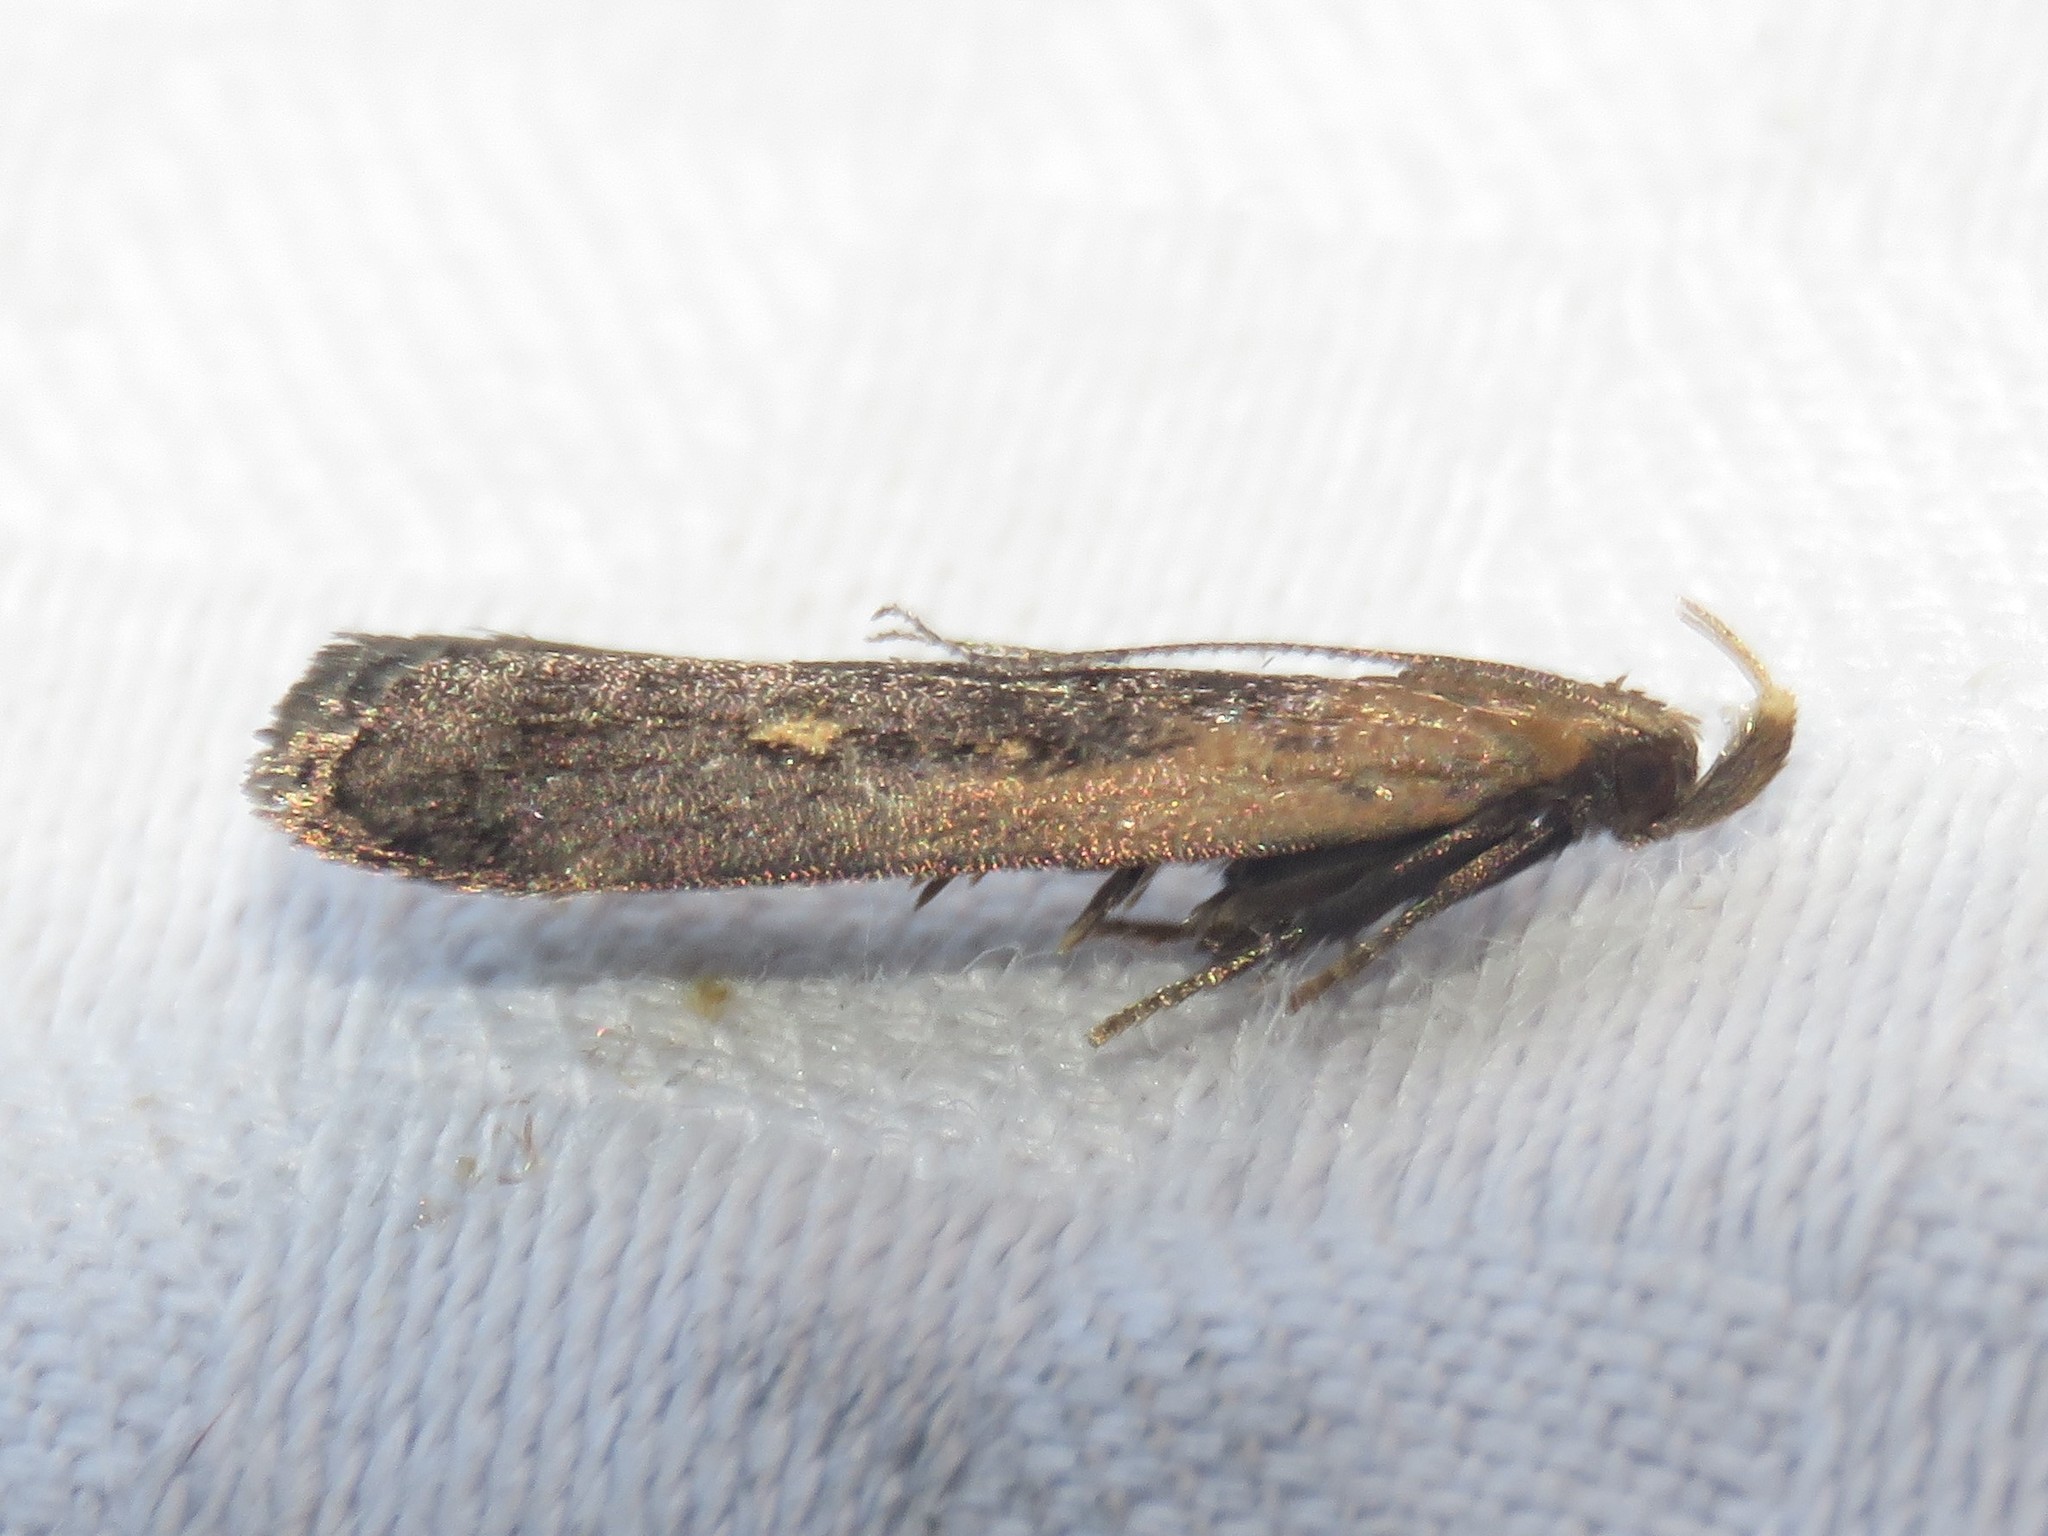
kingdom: Animalia
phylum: Arthropoda
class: Insecta
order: Lepidoptera
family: Gelechiidae
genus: Dichomeris
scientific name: Dichomeris copa
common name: Copa dichomeris moth
